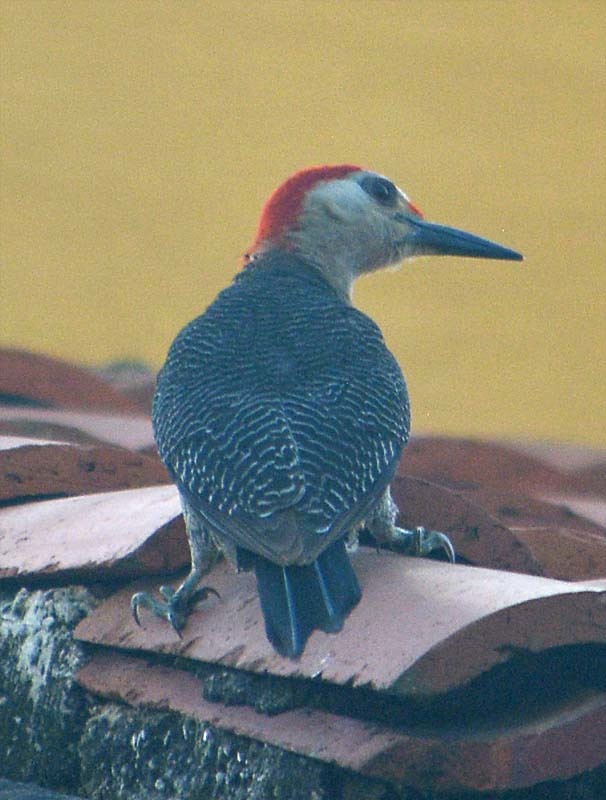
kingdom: Animalia
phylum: Chordata
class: Aves
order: Piciformes
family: Picidae
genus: Melanerpes
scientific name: Melanerpes aurifrons
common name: Golden-fronted woodpecker
